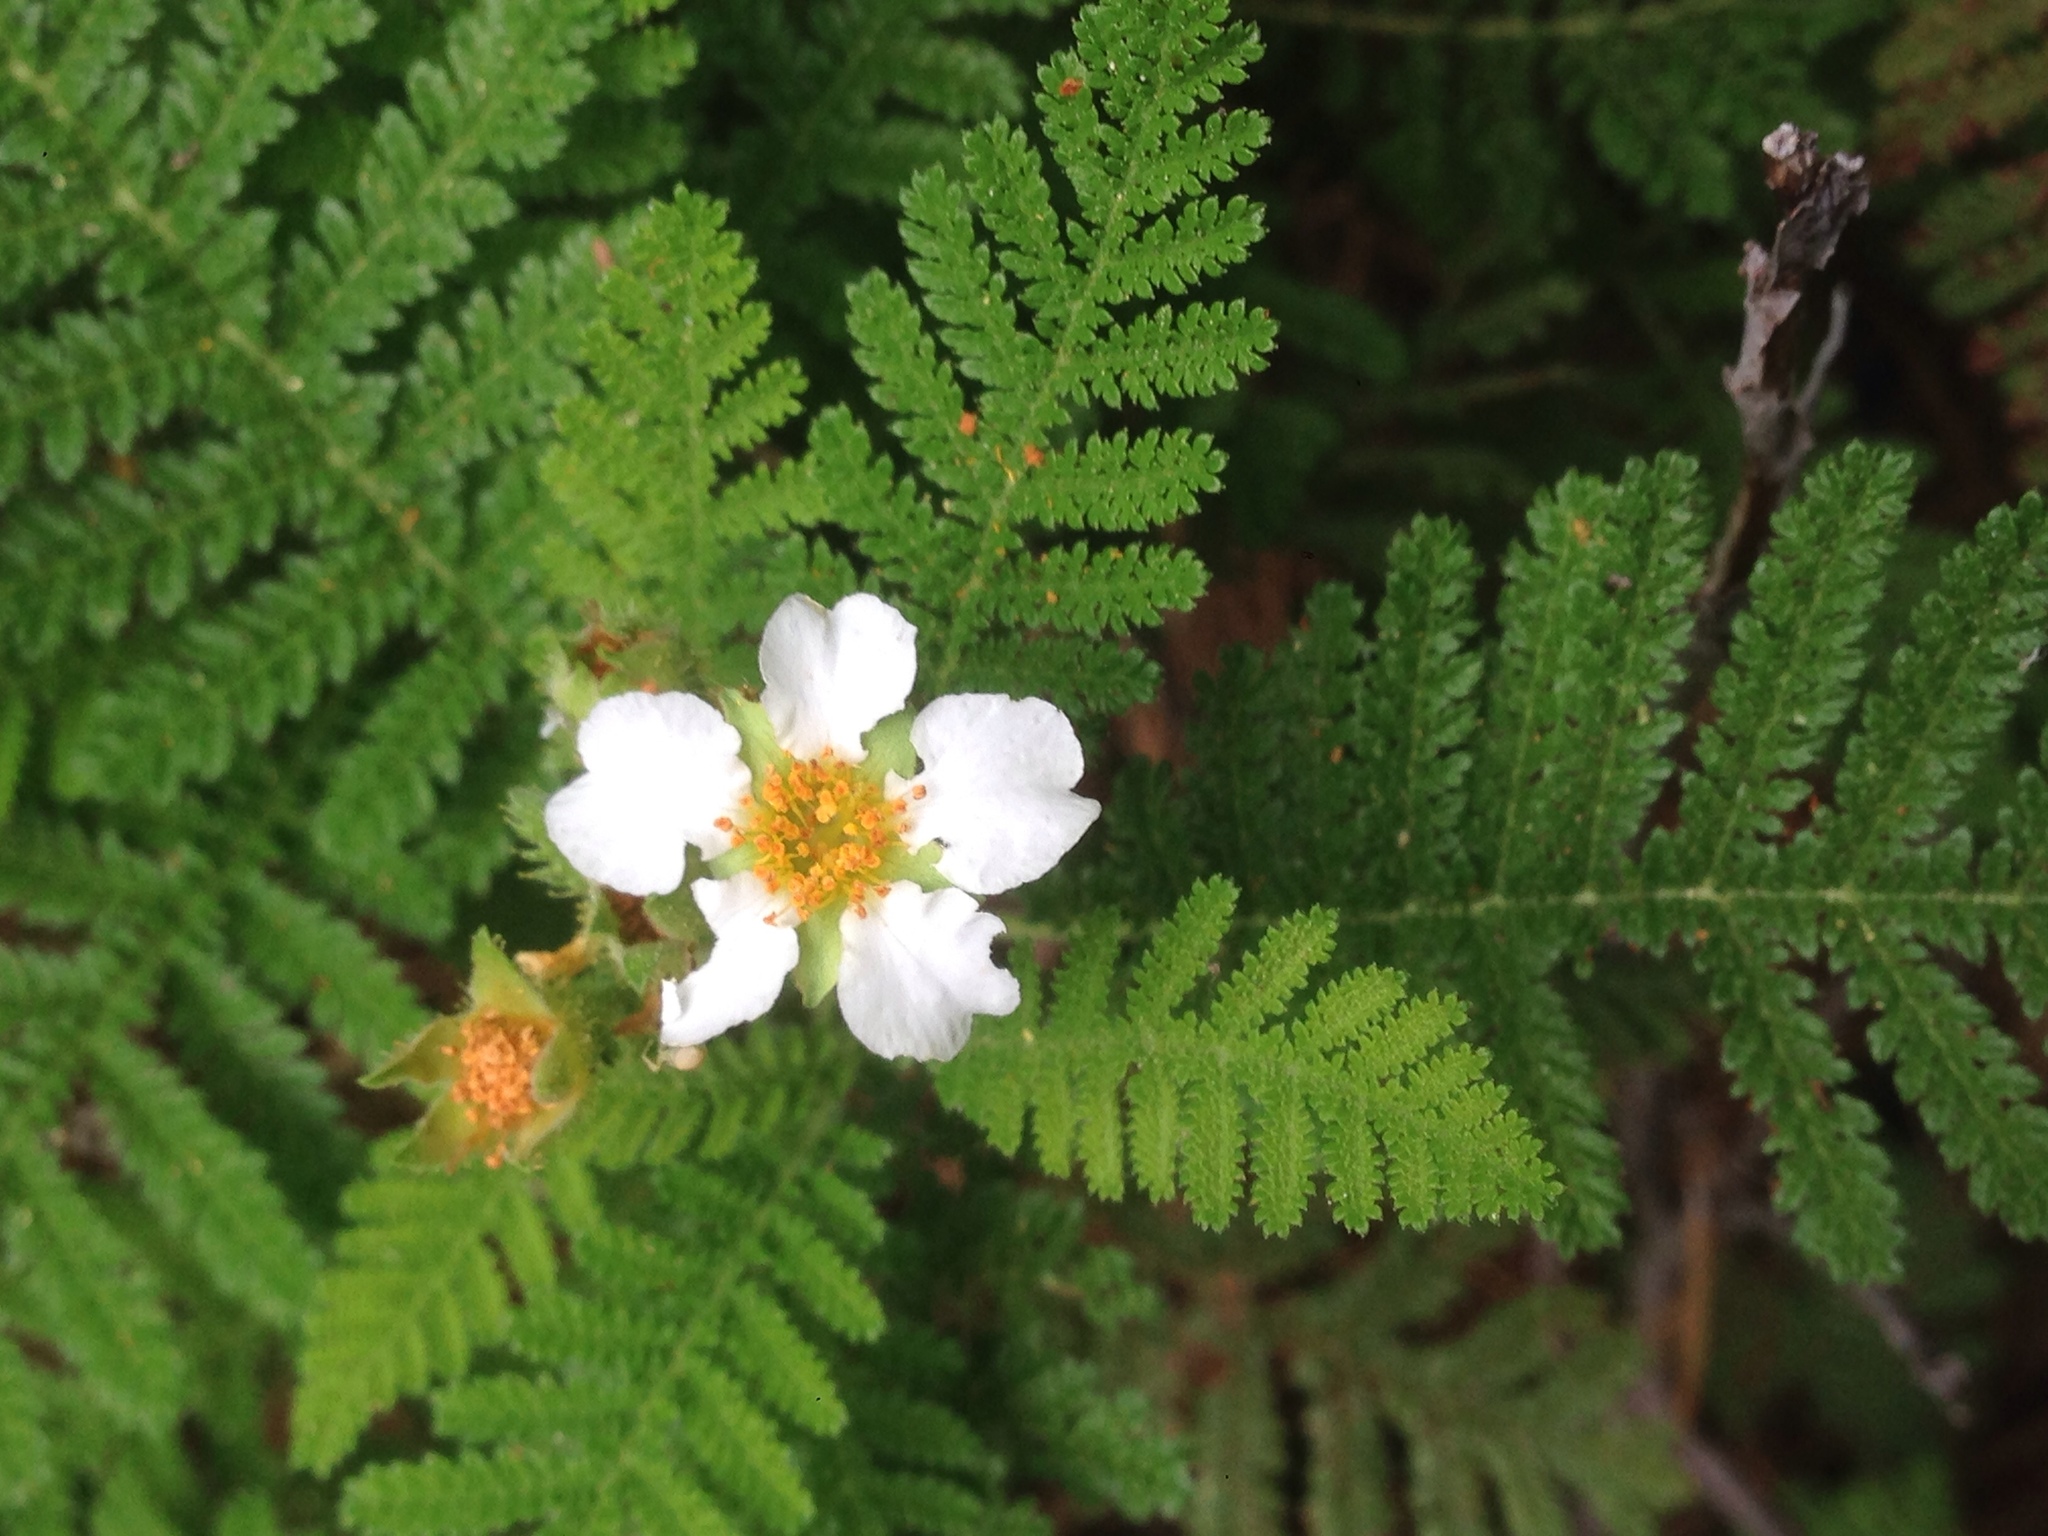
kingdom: Plantae
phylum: Tracheophyta
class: Magnoliopsida
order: Rosales
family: Rosaceae
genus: Chamaebatia
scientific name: Chamaebatia foliolosa
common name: Mountain misery
